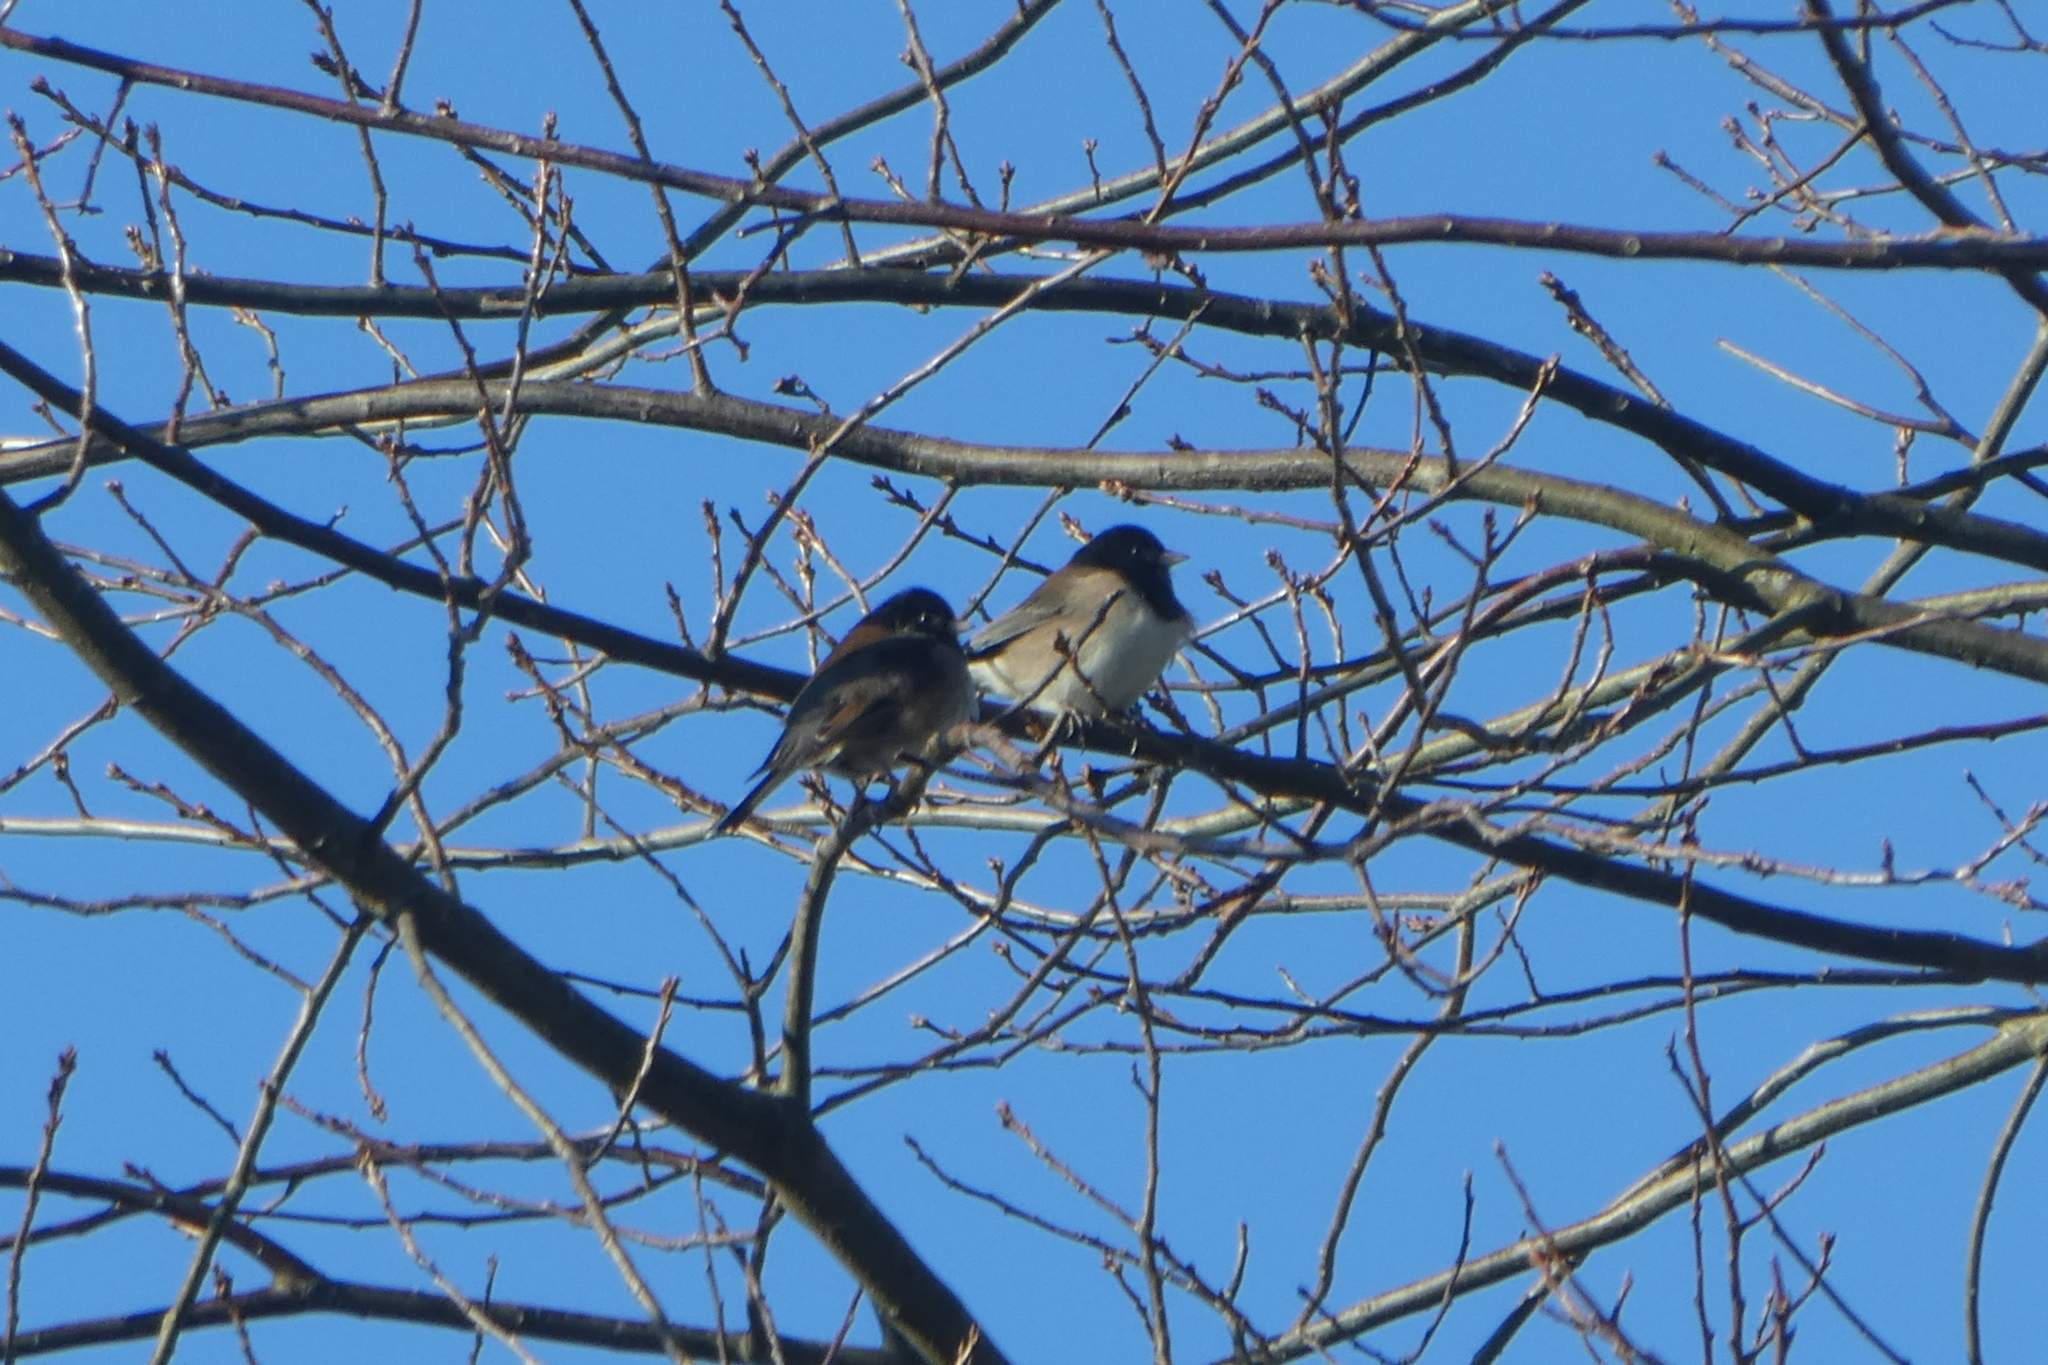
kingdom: Animalia
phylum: Chordata
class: Aves
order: Passeriformes
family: Passerellidae
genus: Junco
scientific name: Junco hyemalis
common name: Dark-eyed junco
